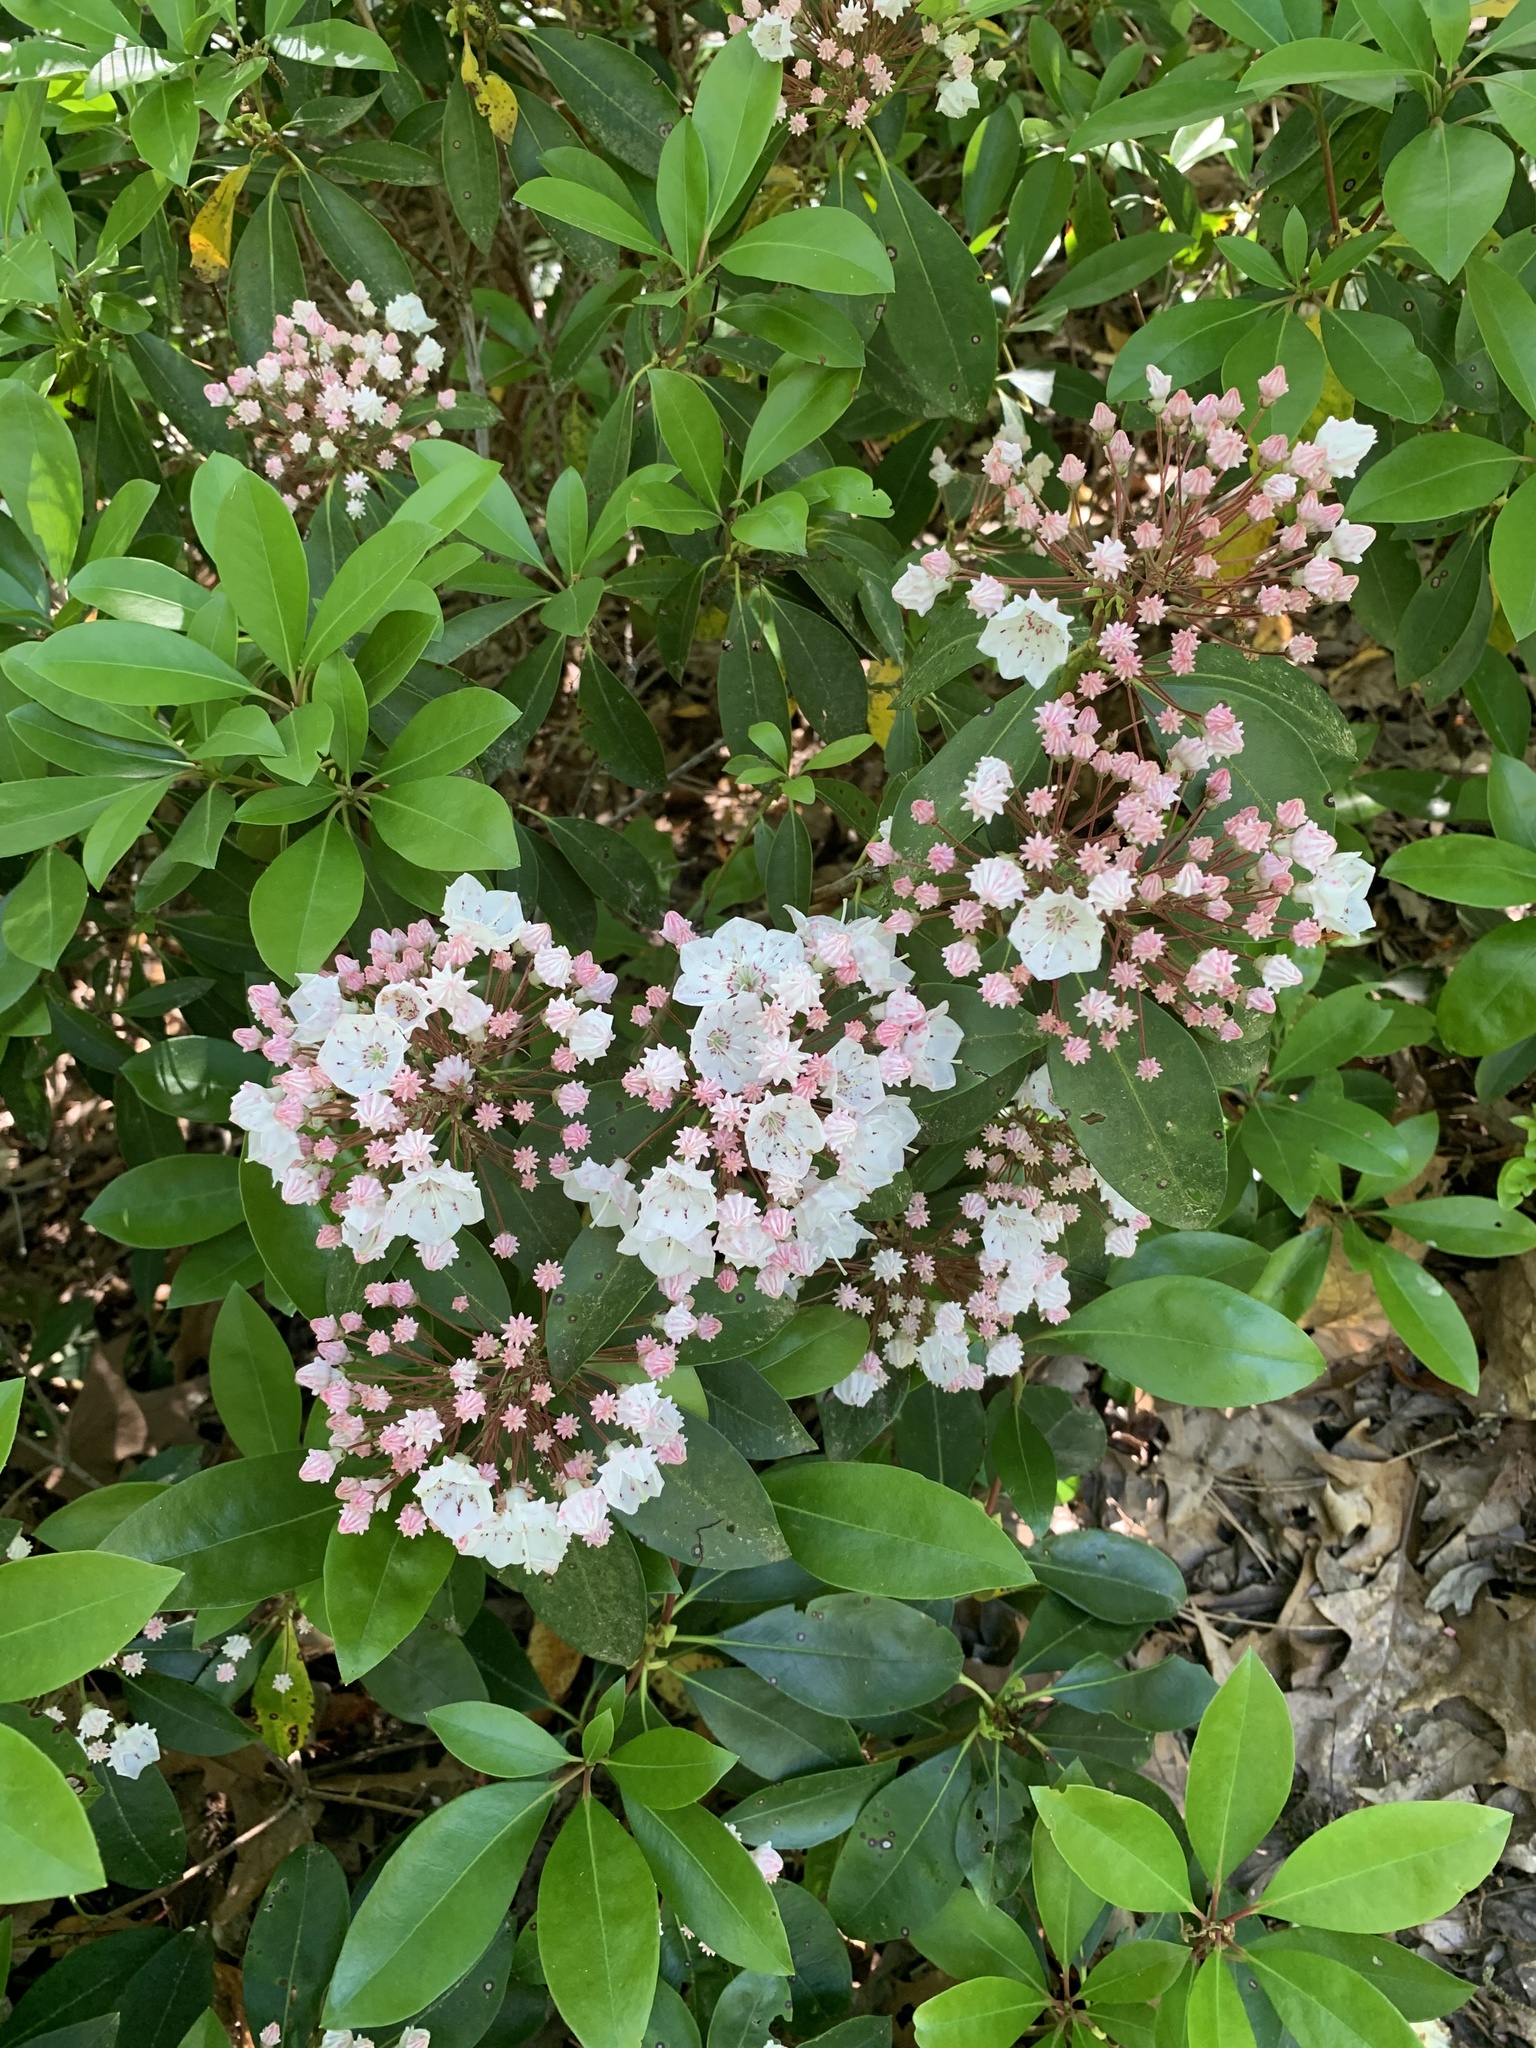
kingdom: Plantae
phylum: Tracheophyta
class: Magnoliopsida
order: Ericales
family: Ericaceae
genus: Kalmia
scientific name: Kalmia latifolia
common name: Mountain-laurel
